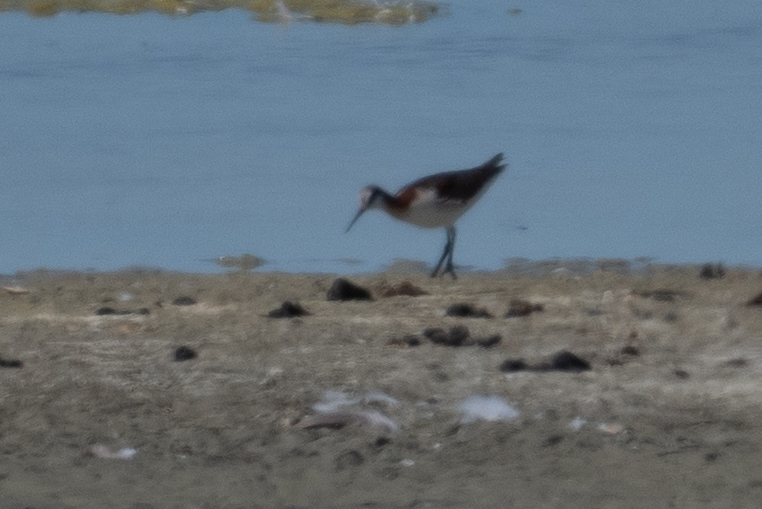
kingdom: Animalia
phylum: Chordata
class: Aves
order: Charadriiformes
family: Scolopacidae
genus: Phalaropus
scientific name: Phalaropus tricolor
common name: Wilson's phalarope
